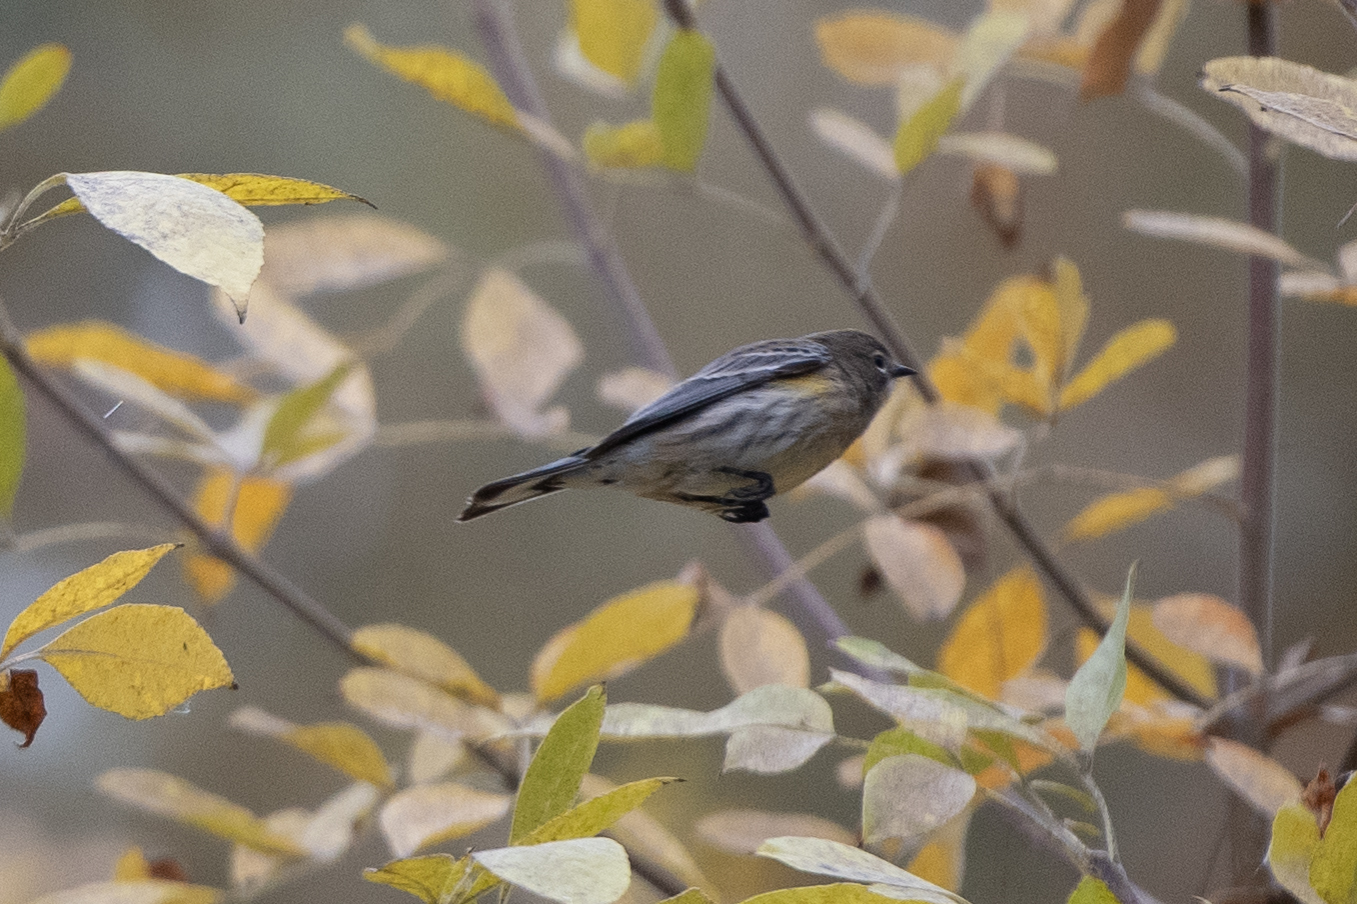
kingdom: Animalia
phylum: Chordata
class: Aves
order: Passeriformes
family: Parulidae
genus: Setophaga
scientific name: Setophaga coronata
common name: Myrtle warbler
